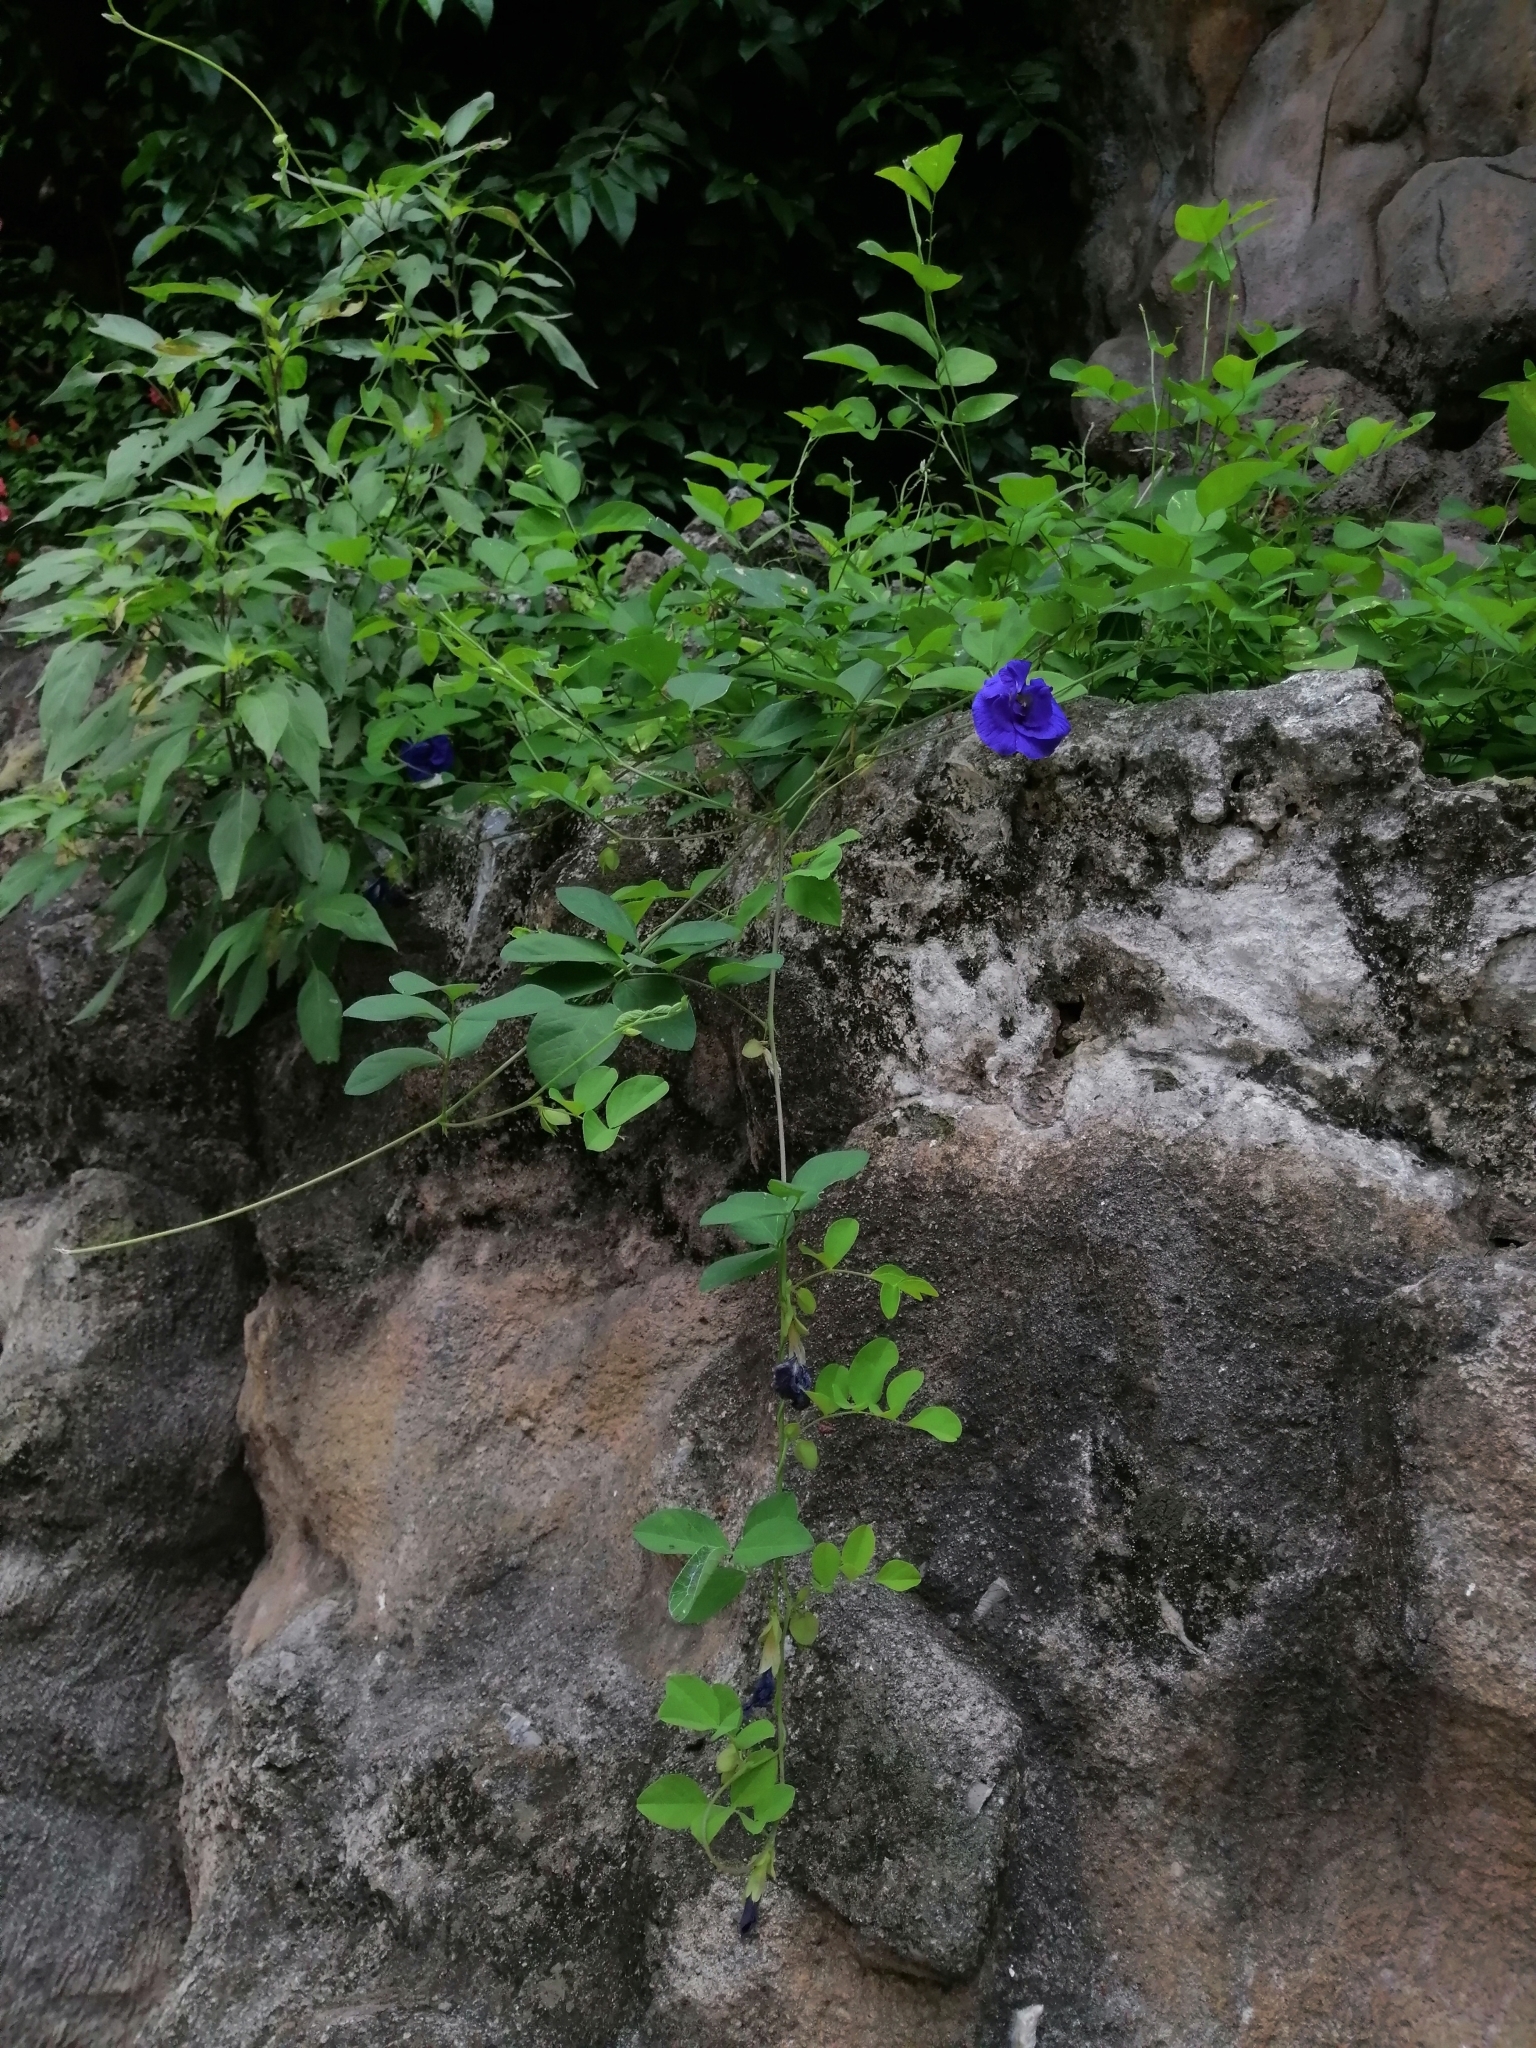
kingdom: Plantae
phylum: Tracheophyta
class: Magnoliopsida
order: Fabales
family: Fabaceae
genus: Clitoria
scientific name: Clitoria ternatea
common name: Asian pigeonwings
